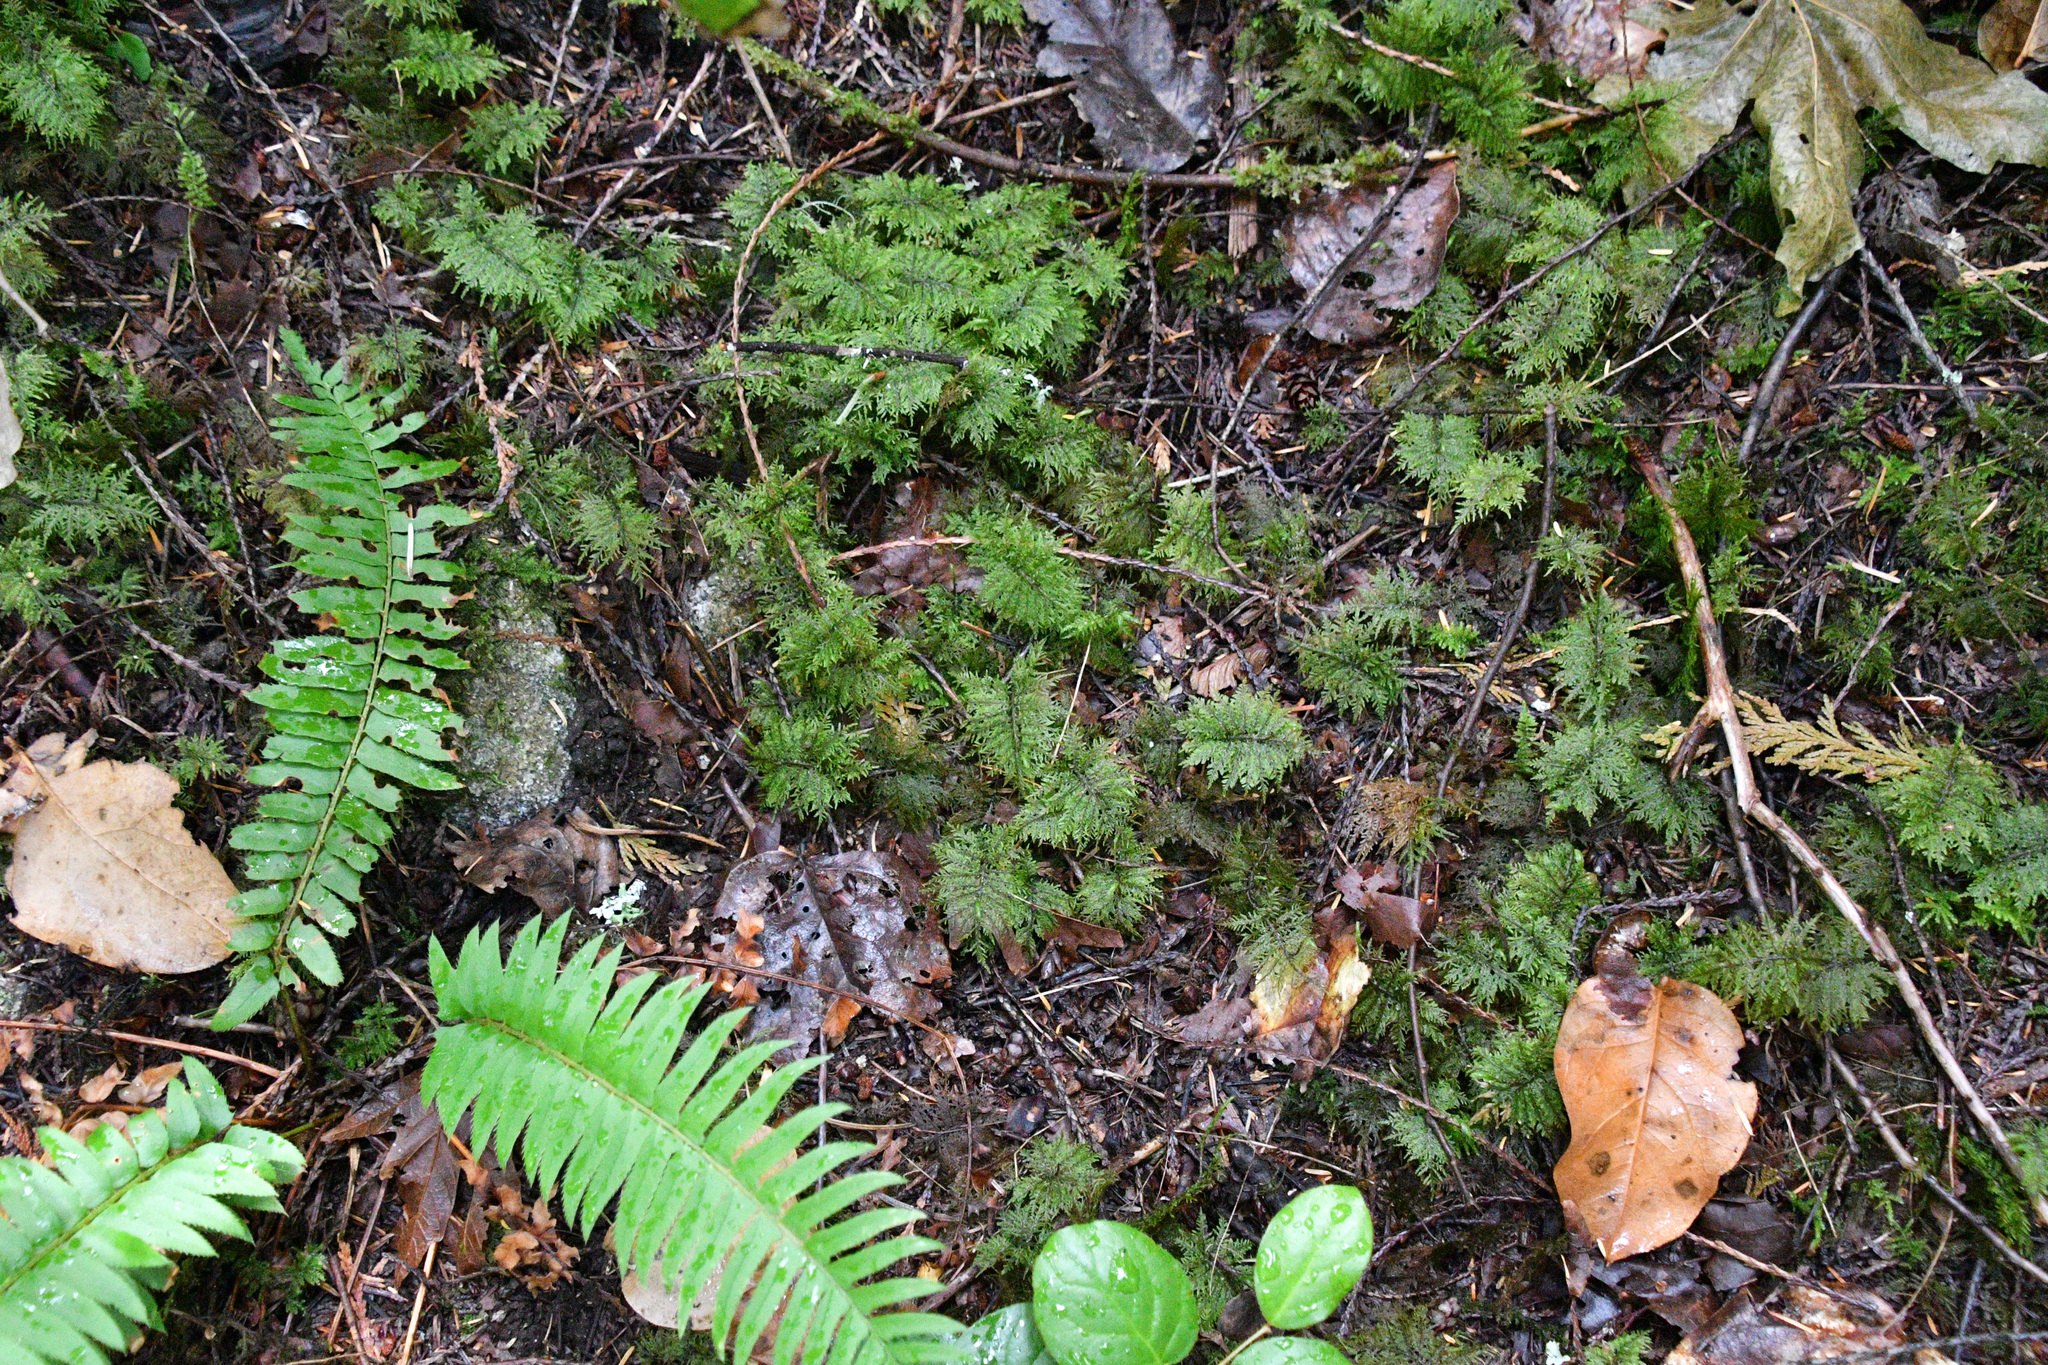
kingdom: Plantae
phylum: Bryophyta
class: Bryopsida
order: Hypnales
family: Hylocomiaceae
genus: Hylocomium
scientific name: Hylocomium splendens
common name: Stairstep moss
